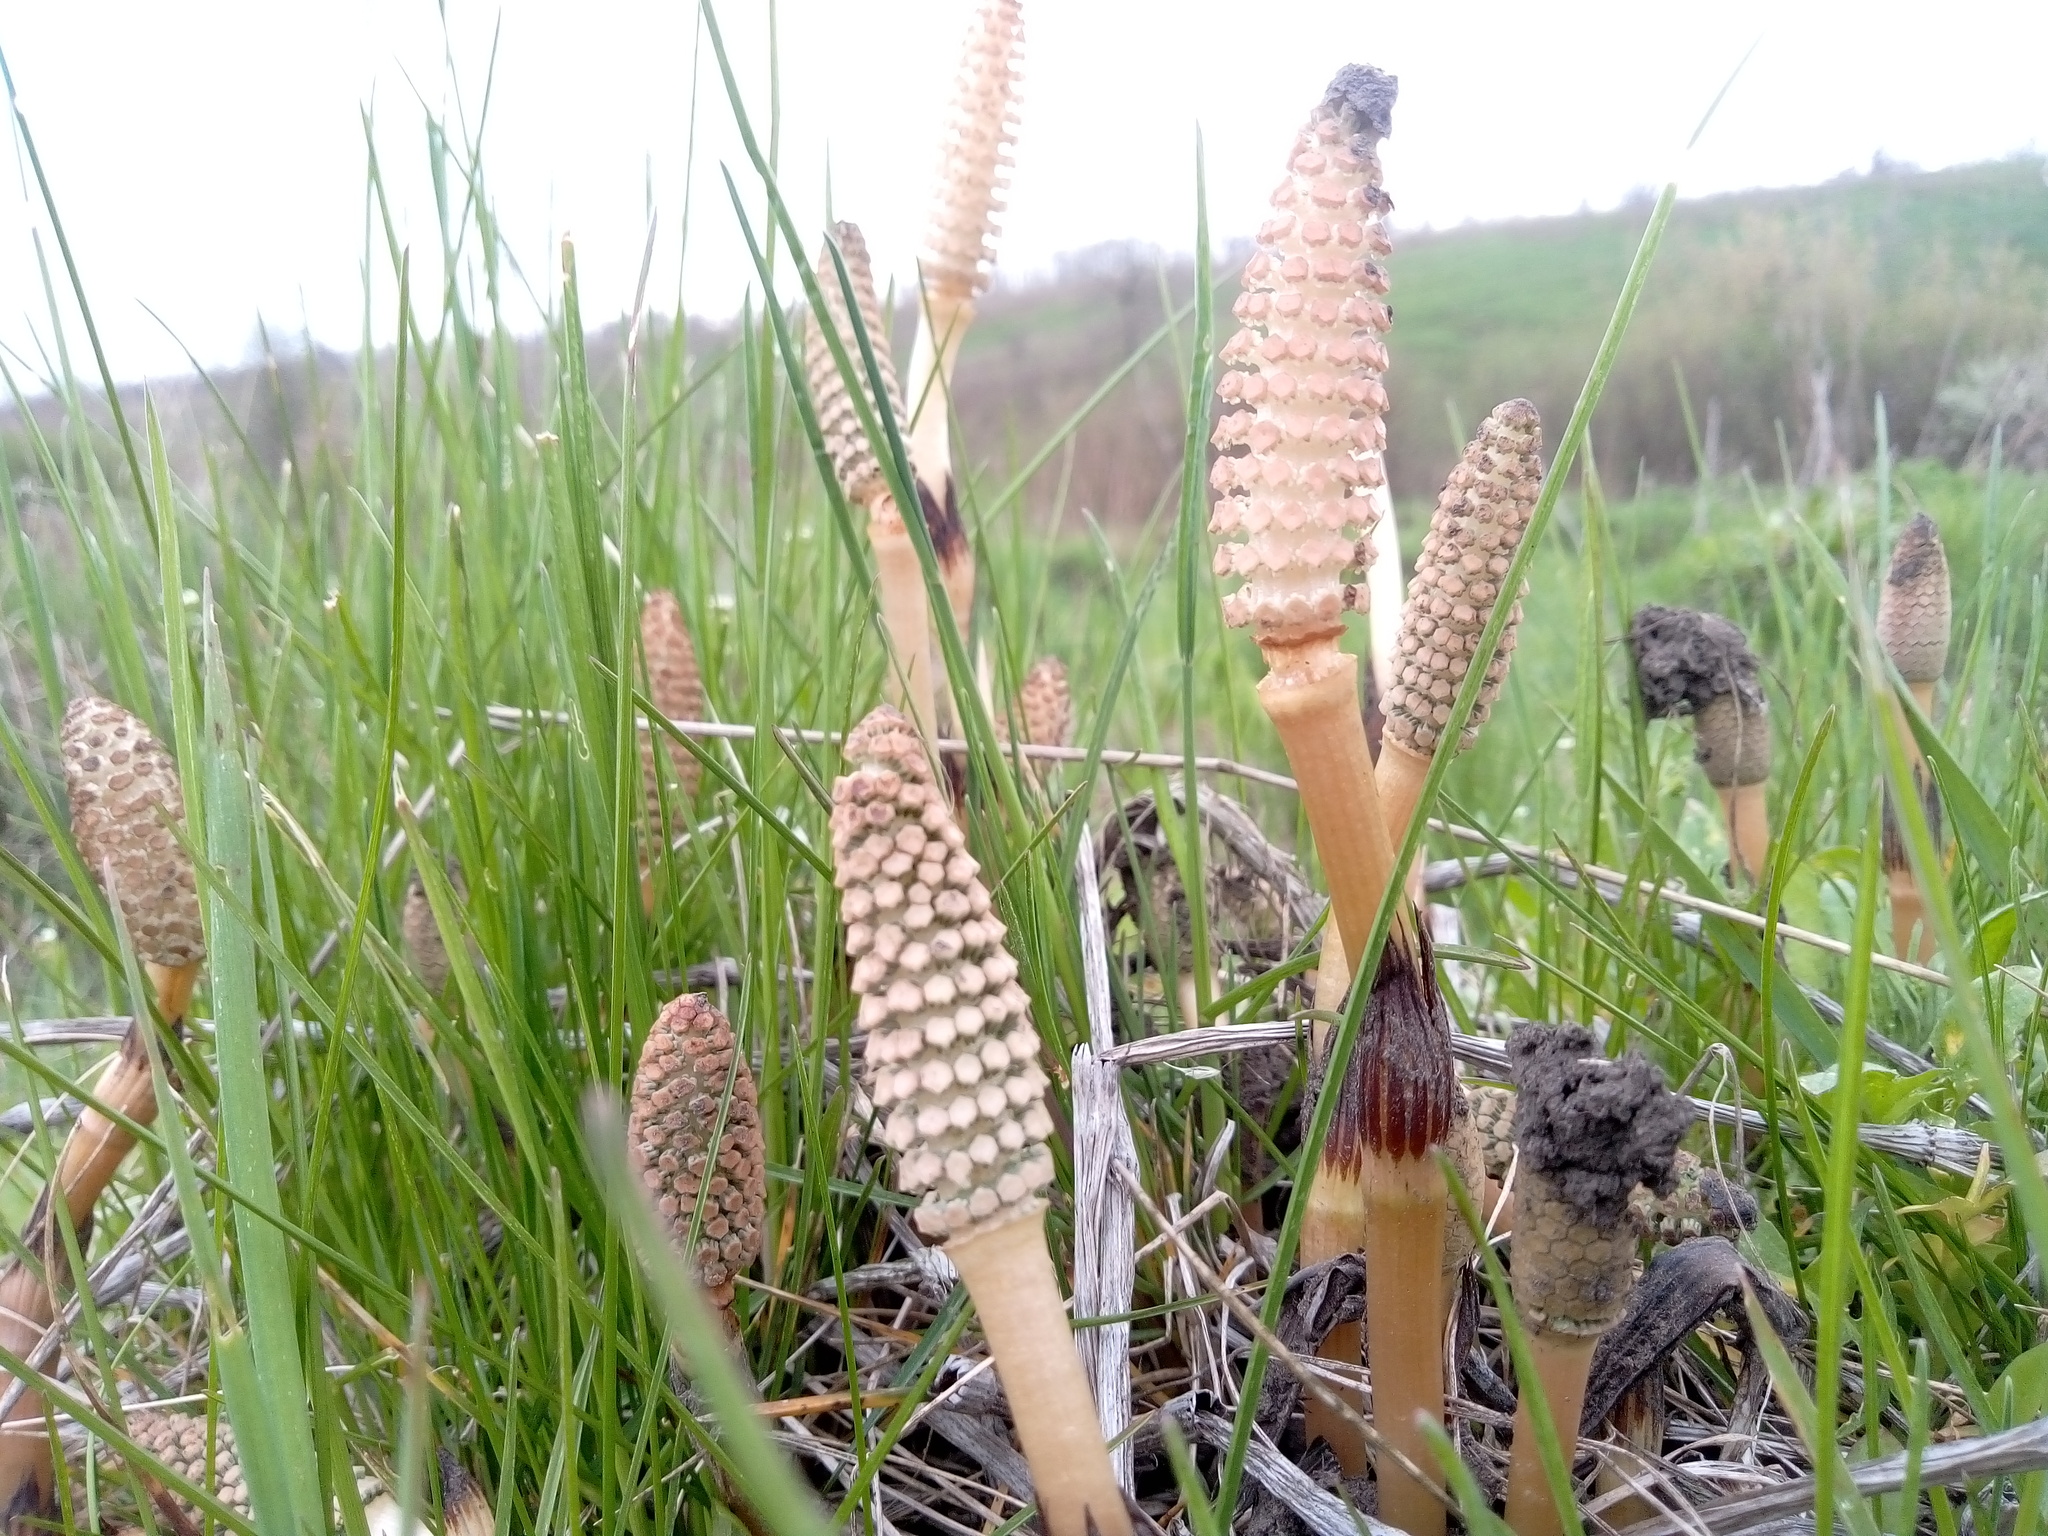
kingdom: Plantae
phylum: Tracheophyta
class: Polypodiopsida
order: Equisetales
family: Equisetaceae
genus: Equisetum
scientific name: Equisetum arvense
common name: Field horsetail
